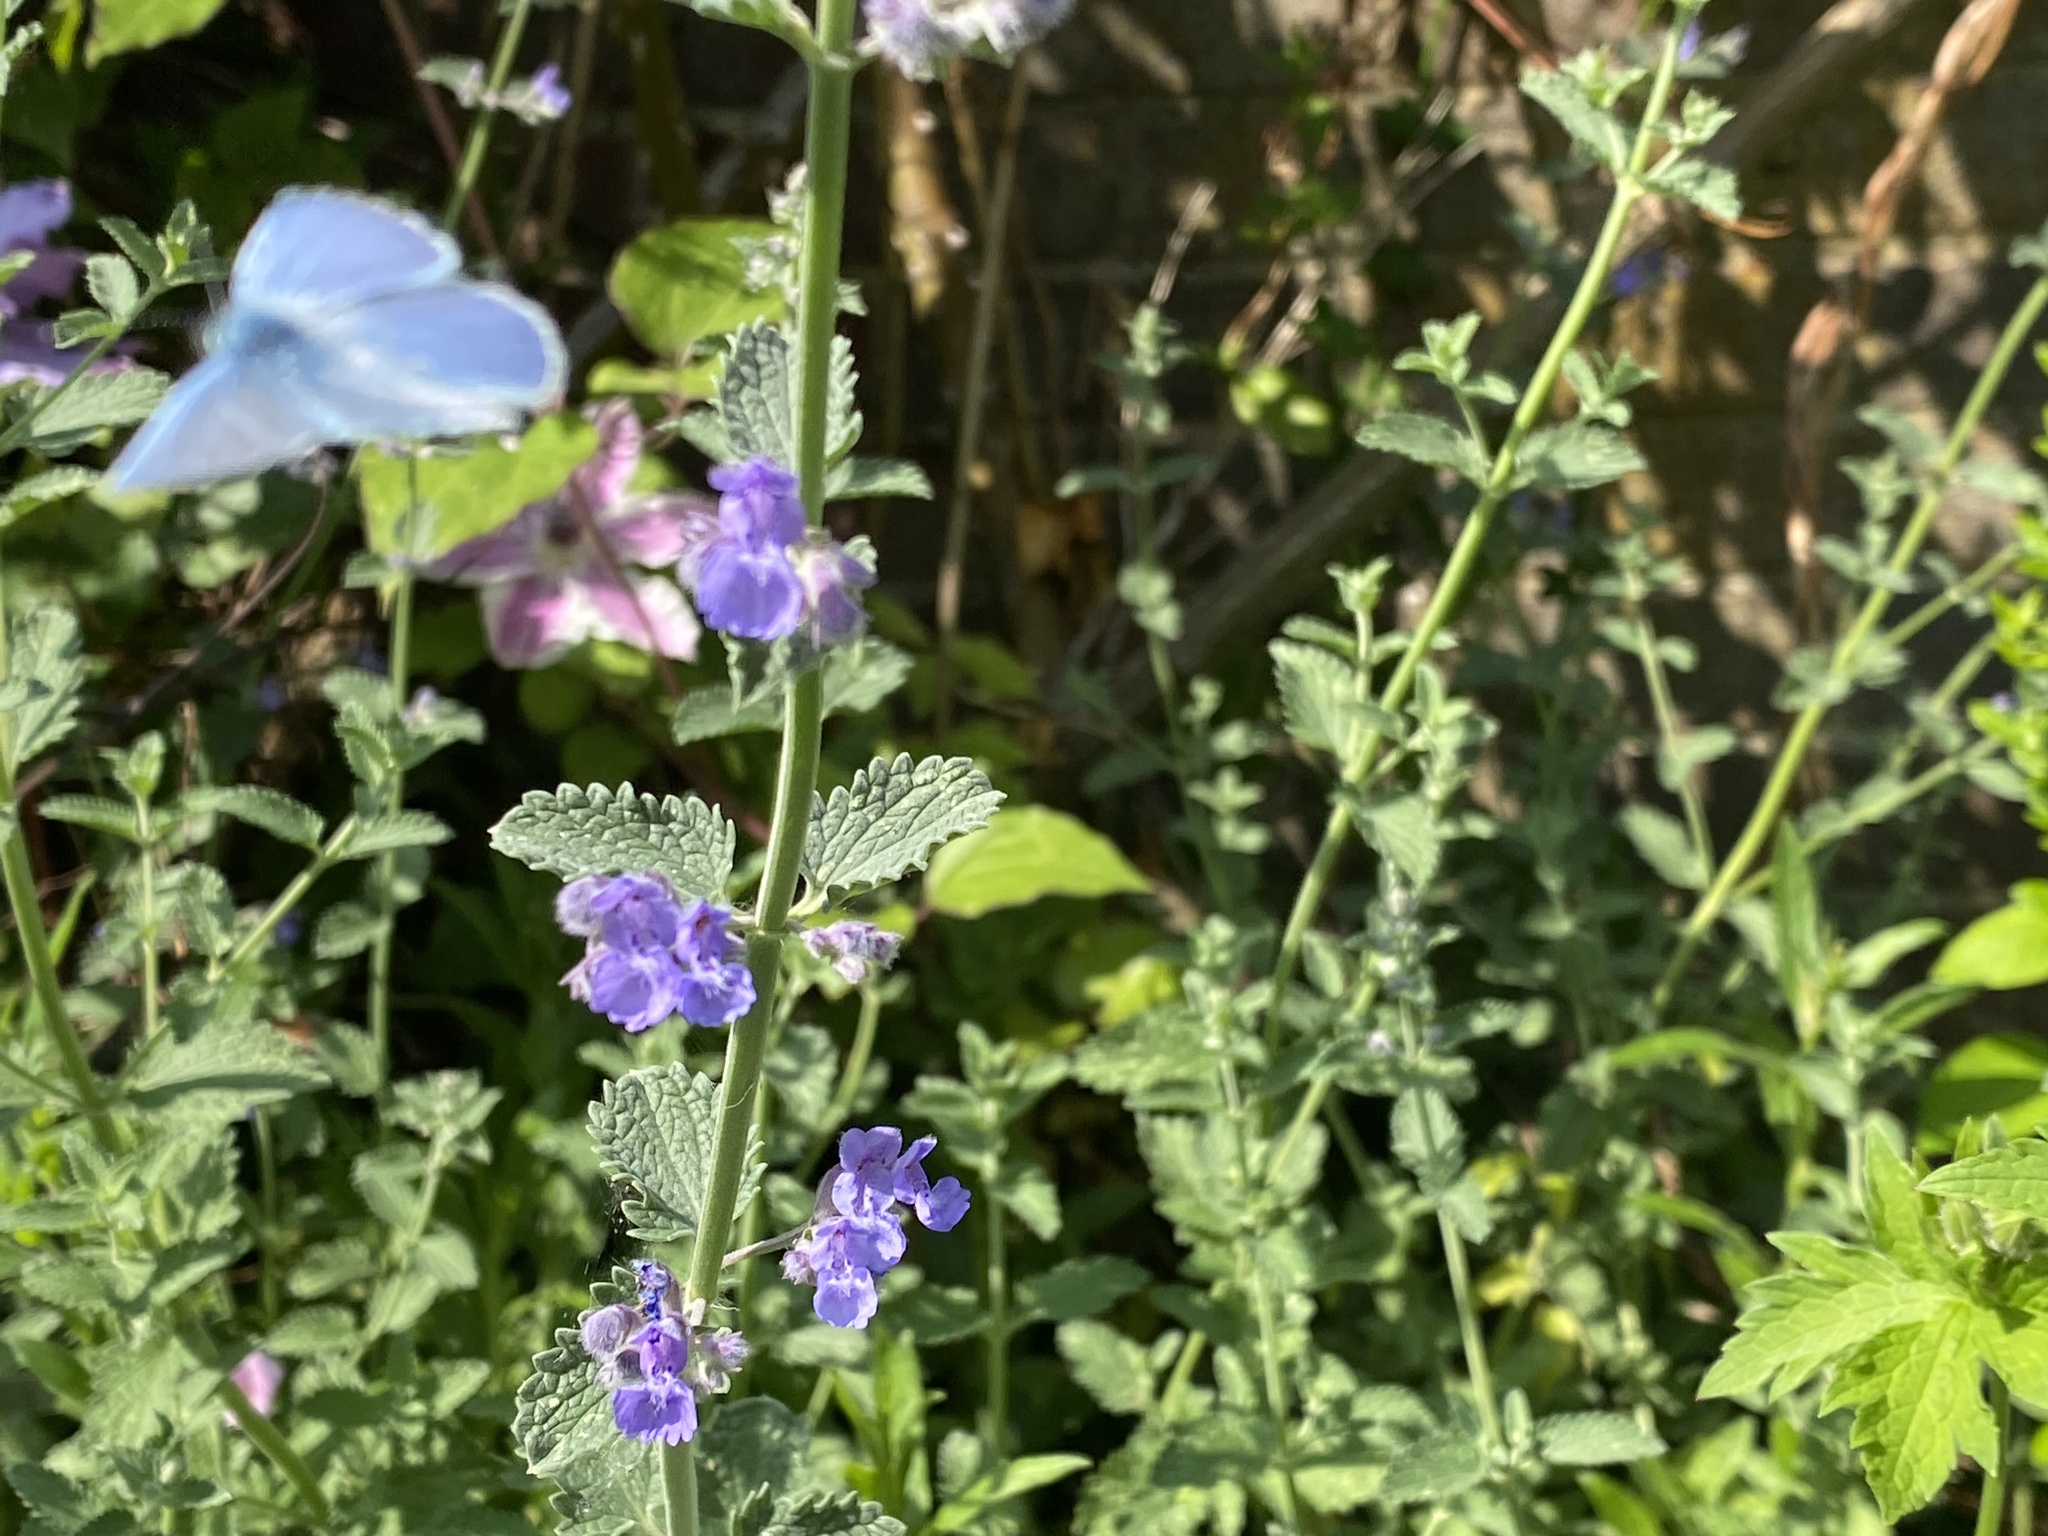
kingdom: Animalia
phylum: Arthropoda
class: Insecta
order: Lepidoptera
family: Lycaenidae
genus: Celastrina
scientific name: Celastrina argiolus
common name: Holly blue
